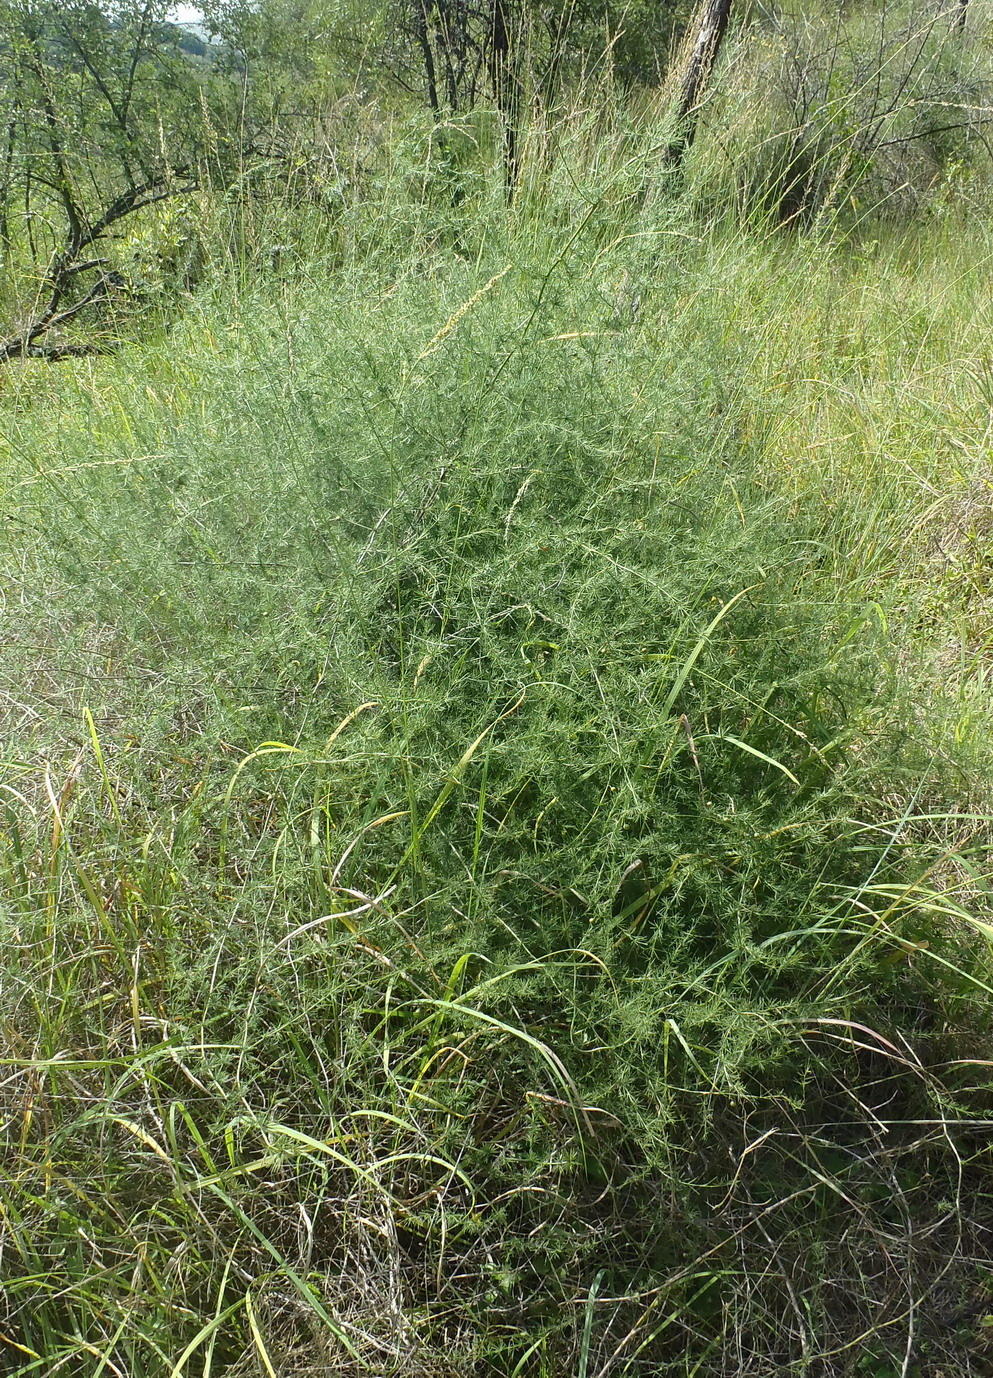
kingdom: Plantae
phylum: Tracheophyta
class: Liliopsida
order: Asparagales
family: Asparagaceae
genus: Asparagus
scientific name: Asparagus africanus
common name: Asparagus-fern
